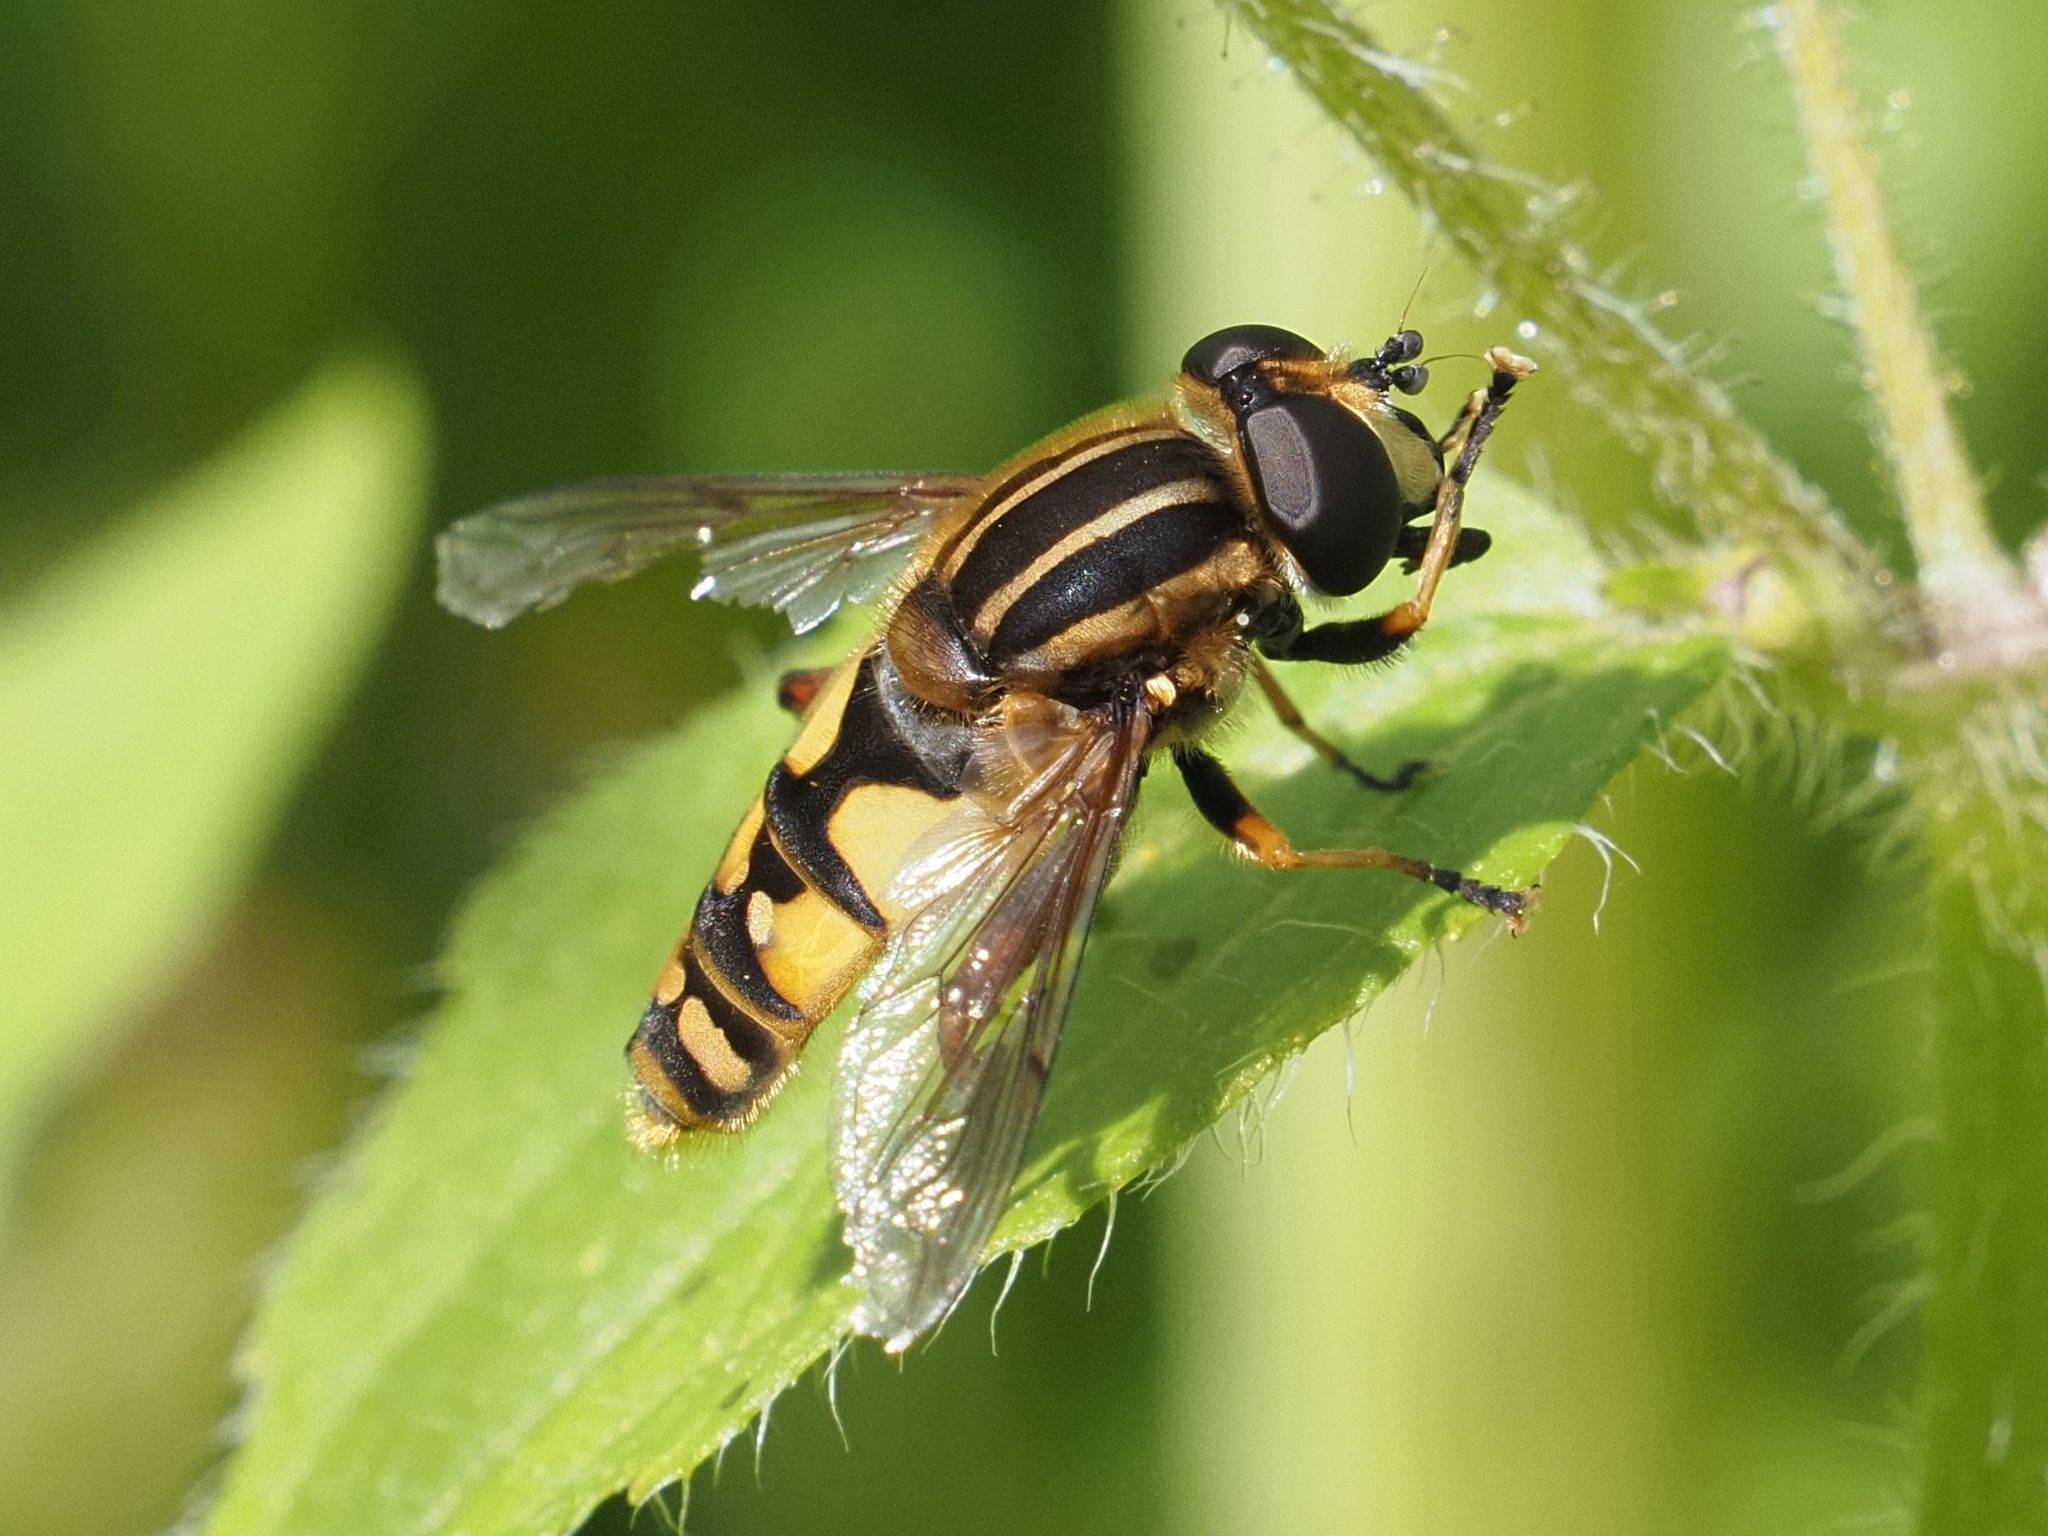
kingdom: Animalia
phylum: Arthropoda
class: Insecta
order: Diptera
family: Syrphidae
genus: Helophilus
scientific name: Helophilus pendulus
